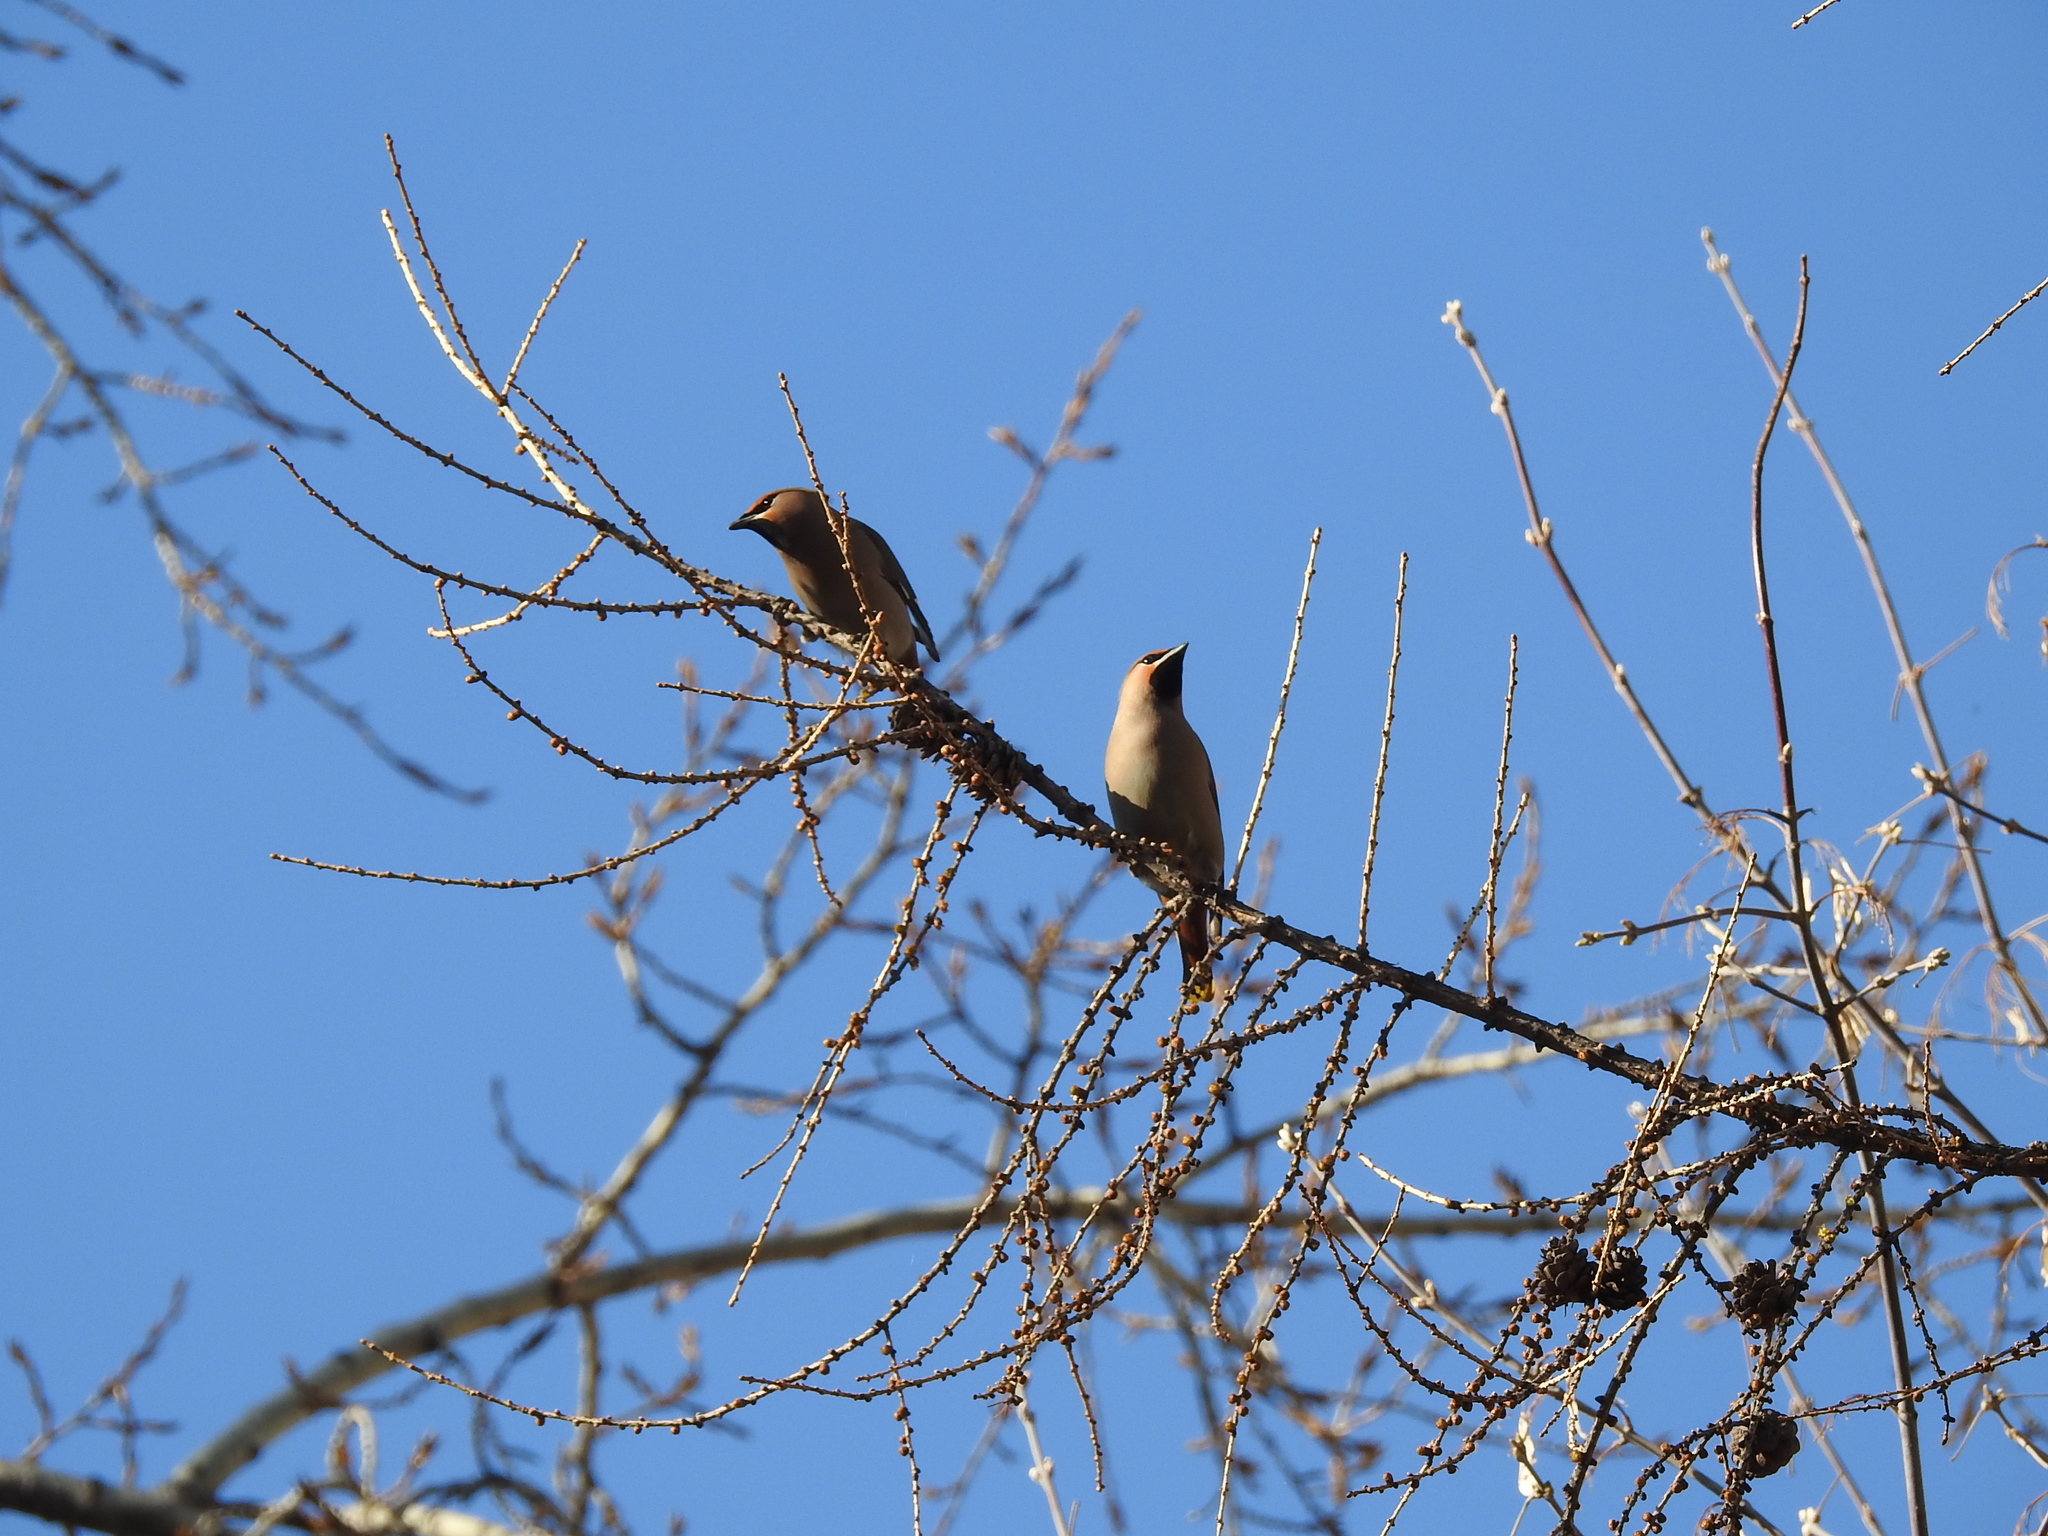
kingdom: Animalia
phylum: Chordata
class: Aves
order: Passeriformes
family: Bombycillidae
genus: Bombycilla
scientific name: Bombycilla garrulus
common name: Bohemian waxwing
